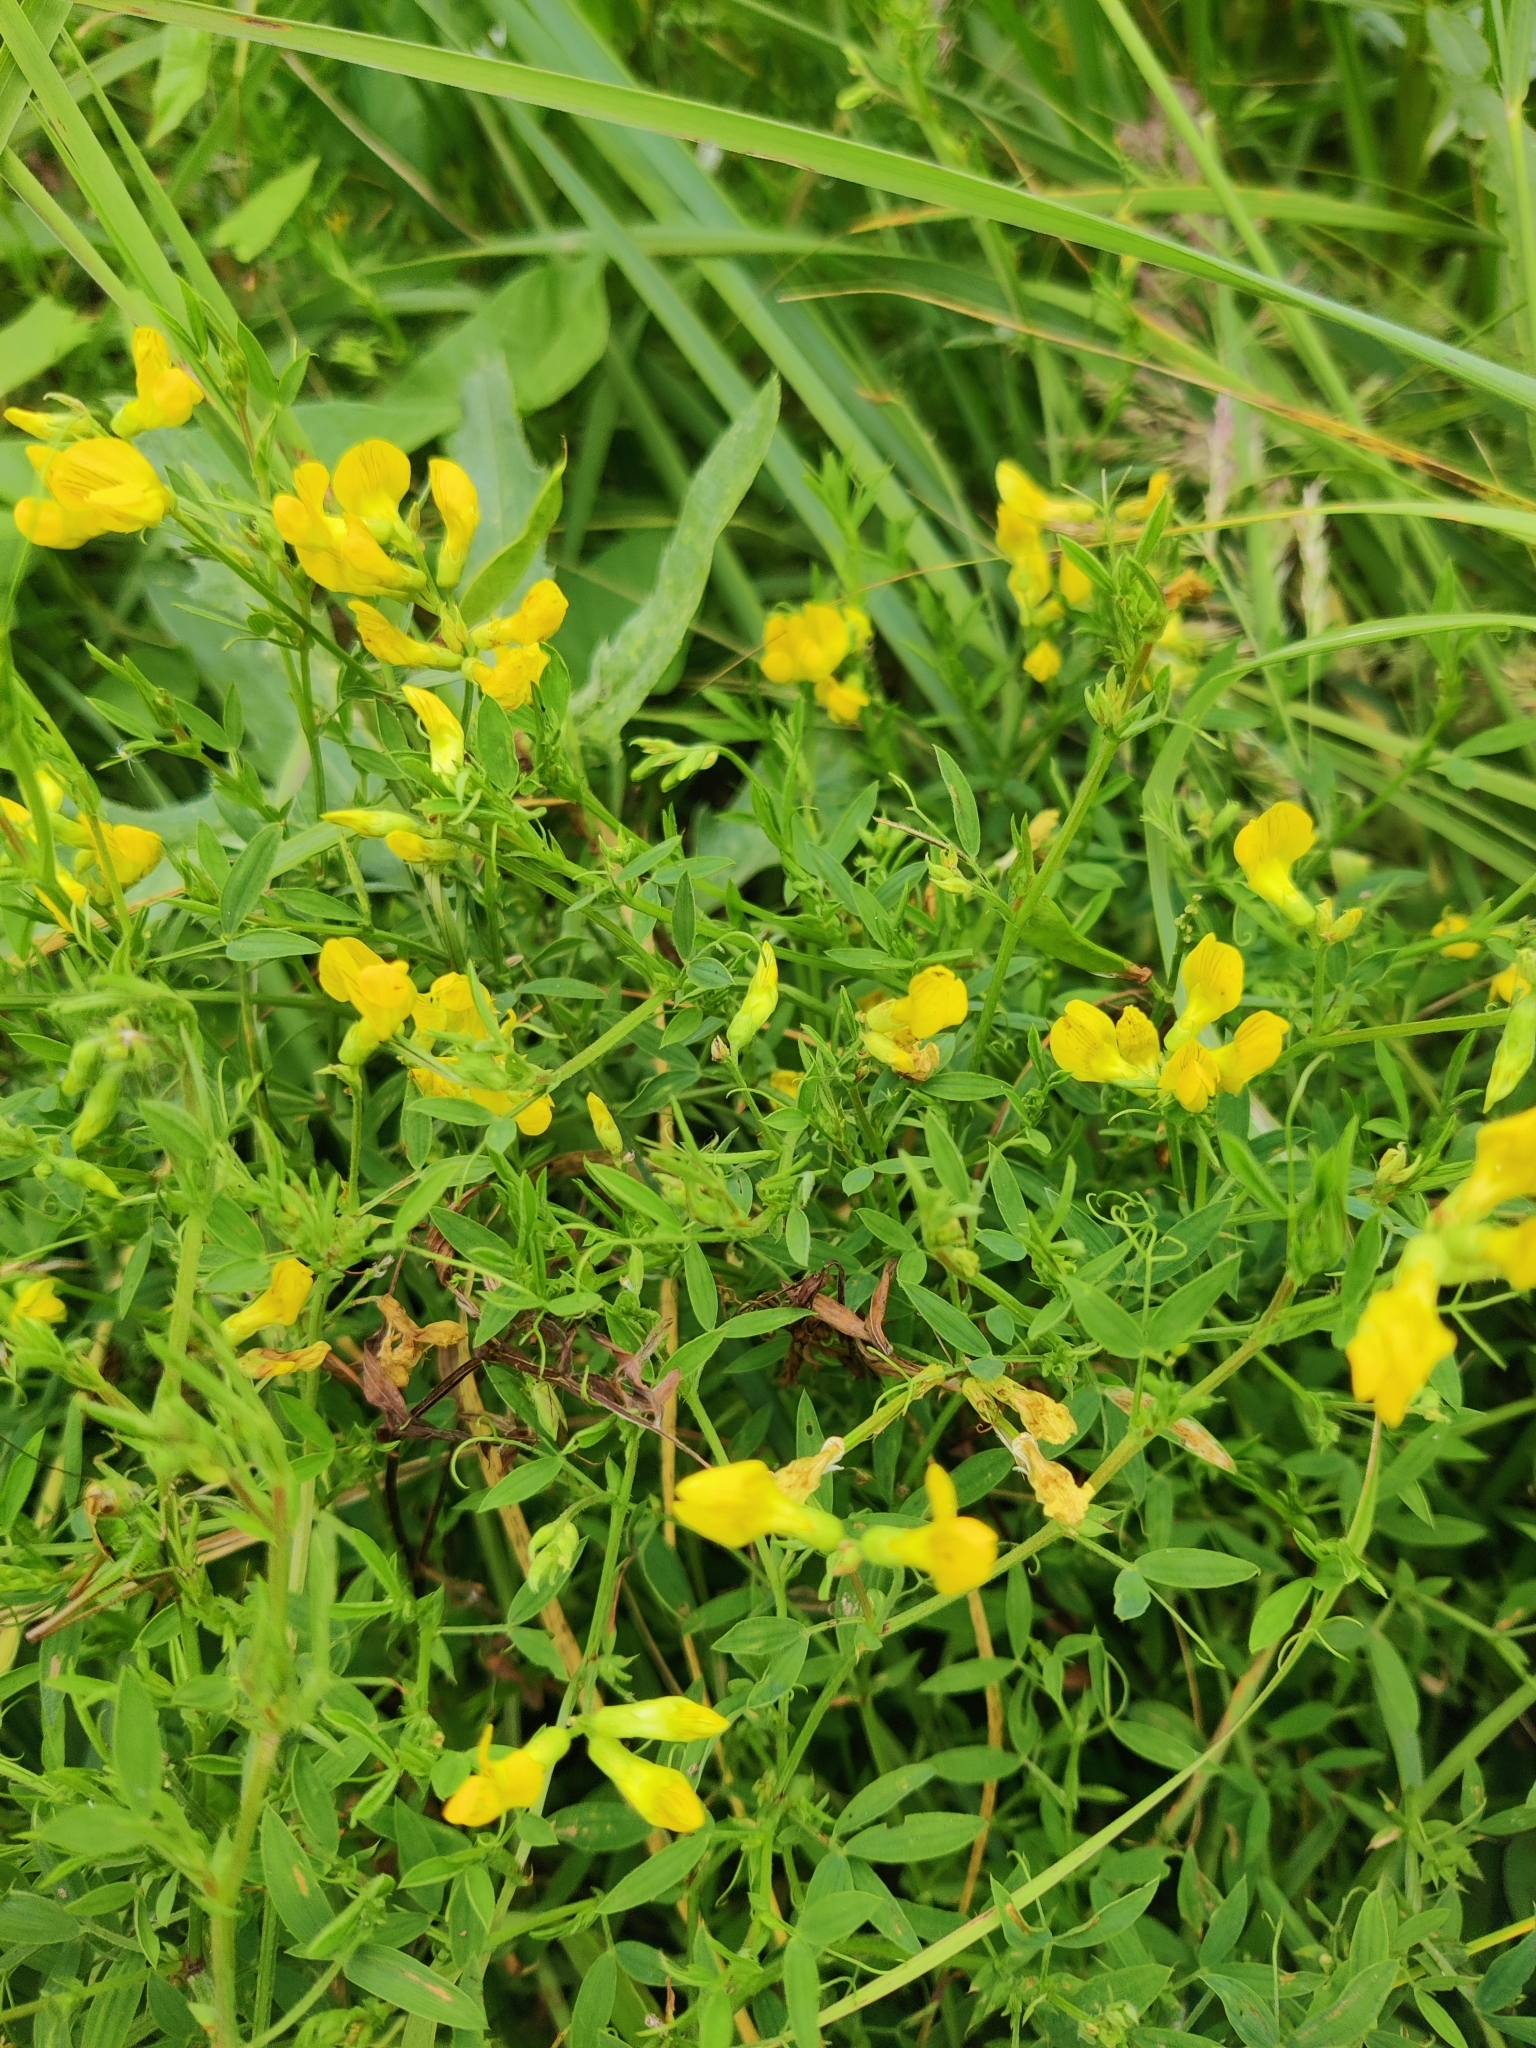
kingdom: Plantae
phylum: Tracheophyta
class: Magnoliopsida
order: Fabales
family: Fabaceae
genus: Lathyrus
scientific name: Lathyrus pratensis
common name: Meadow vetchling
